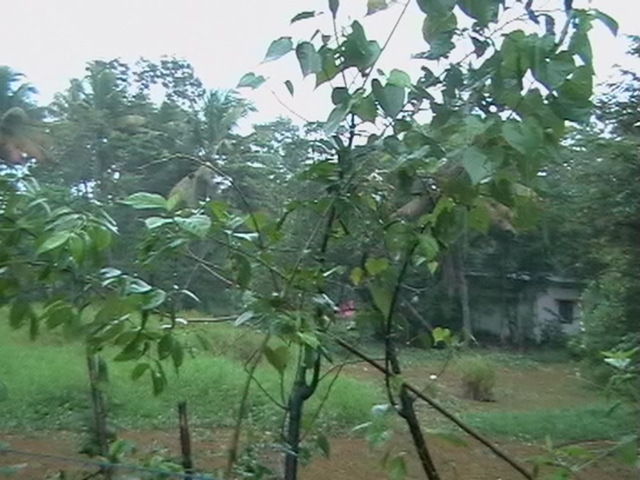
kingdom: Plantae
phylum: Tracheophyta
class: Magnoliopsida
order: Malvales
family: Malvaceae
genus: Thespesia
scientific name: Thespesia populnea
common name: Seaside mahoe
